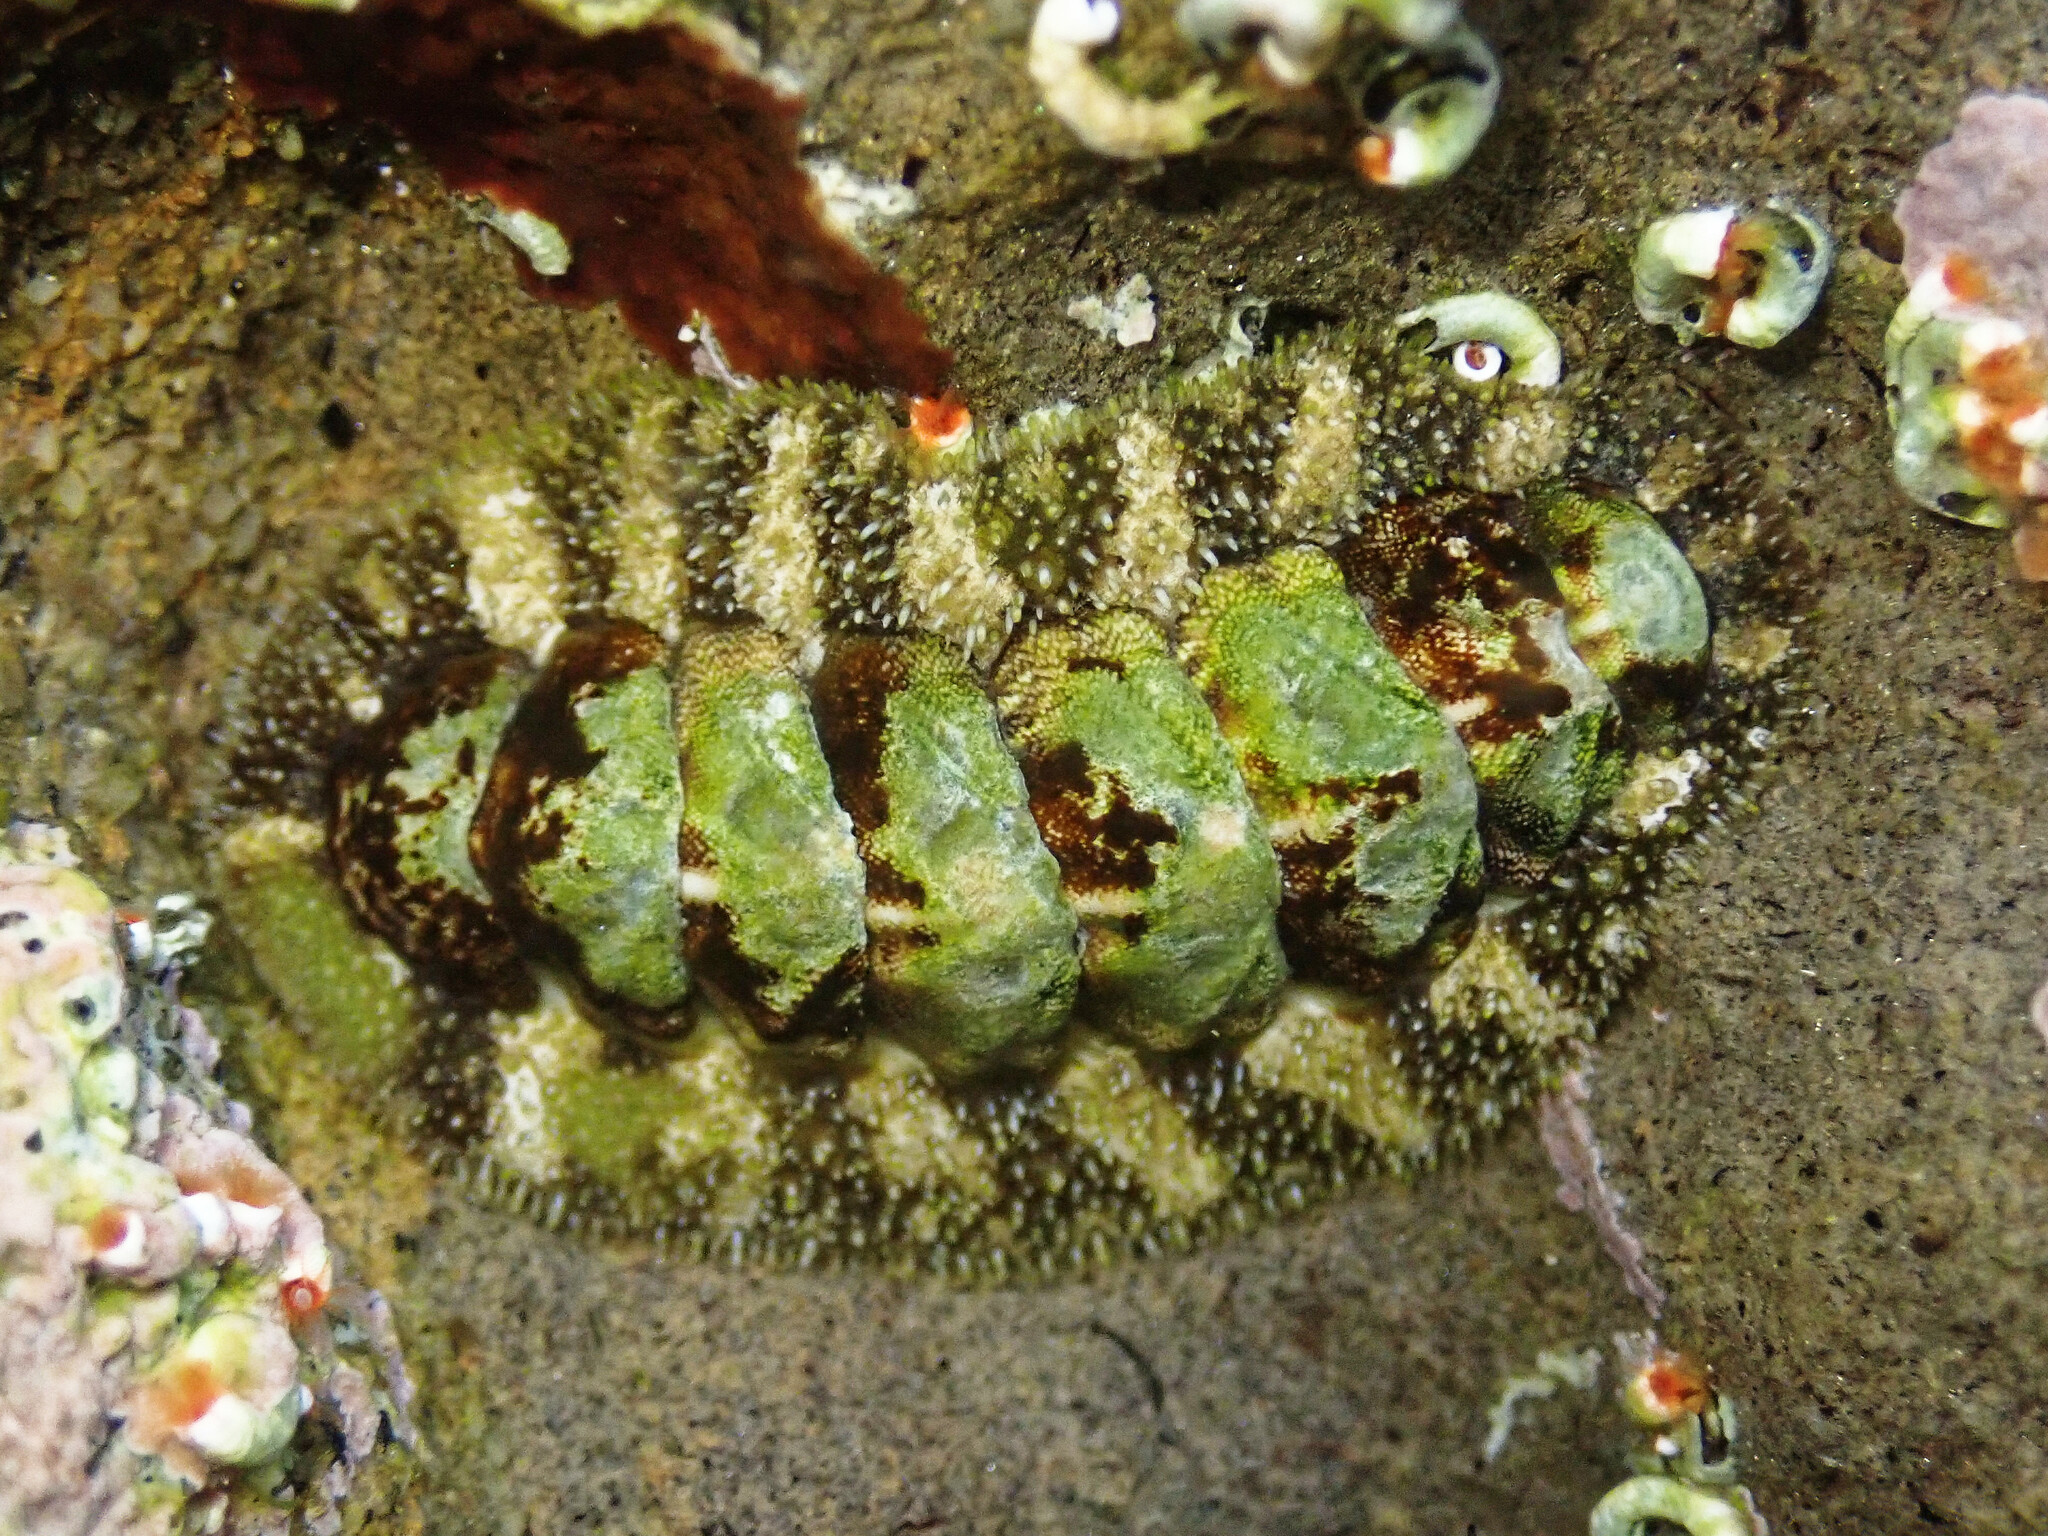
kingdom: Animalia
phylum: Mollusca
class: Polyplacophora
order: Chitonida
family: Tonicellidae
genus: Nuttallina
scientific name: Nuttallina californica
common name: California nuttall chiton
